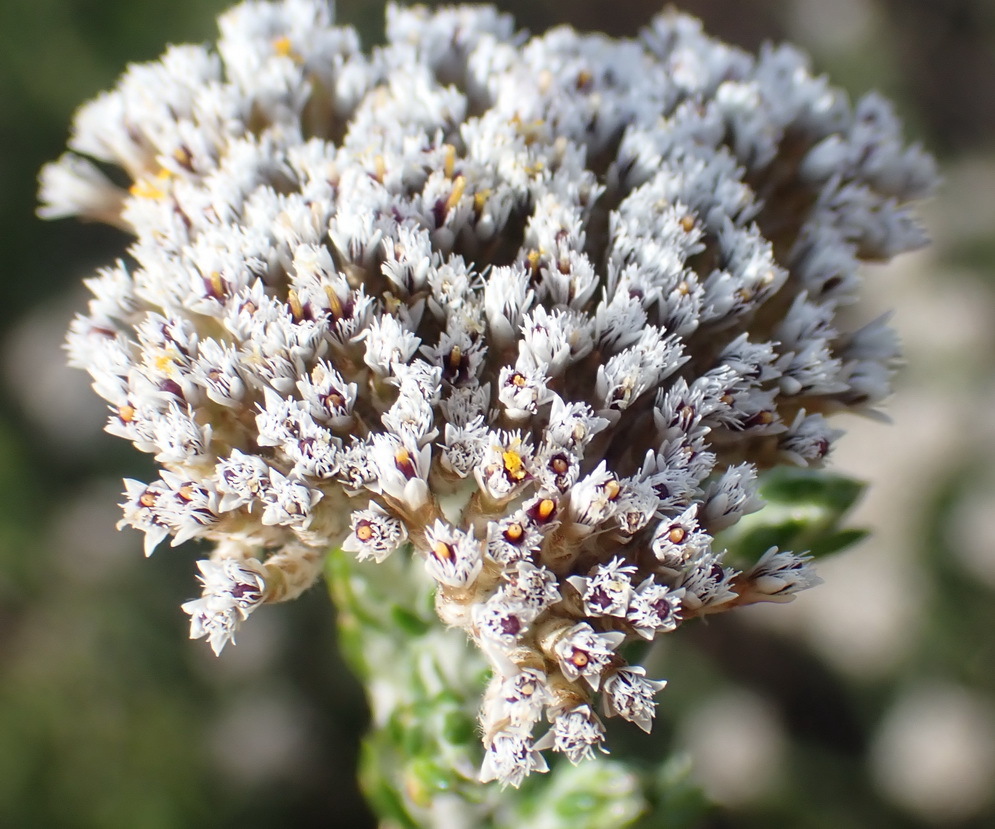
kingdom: Plantae
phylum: Tracheophyta
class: Magnoliopsida
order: Asterales
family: Asteraceae
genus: Metalasia
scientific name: Metalasia pungens
